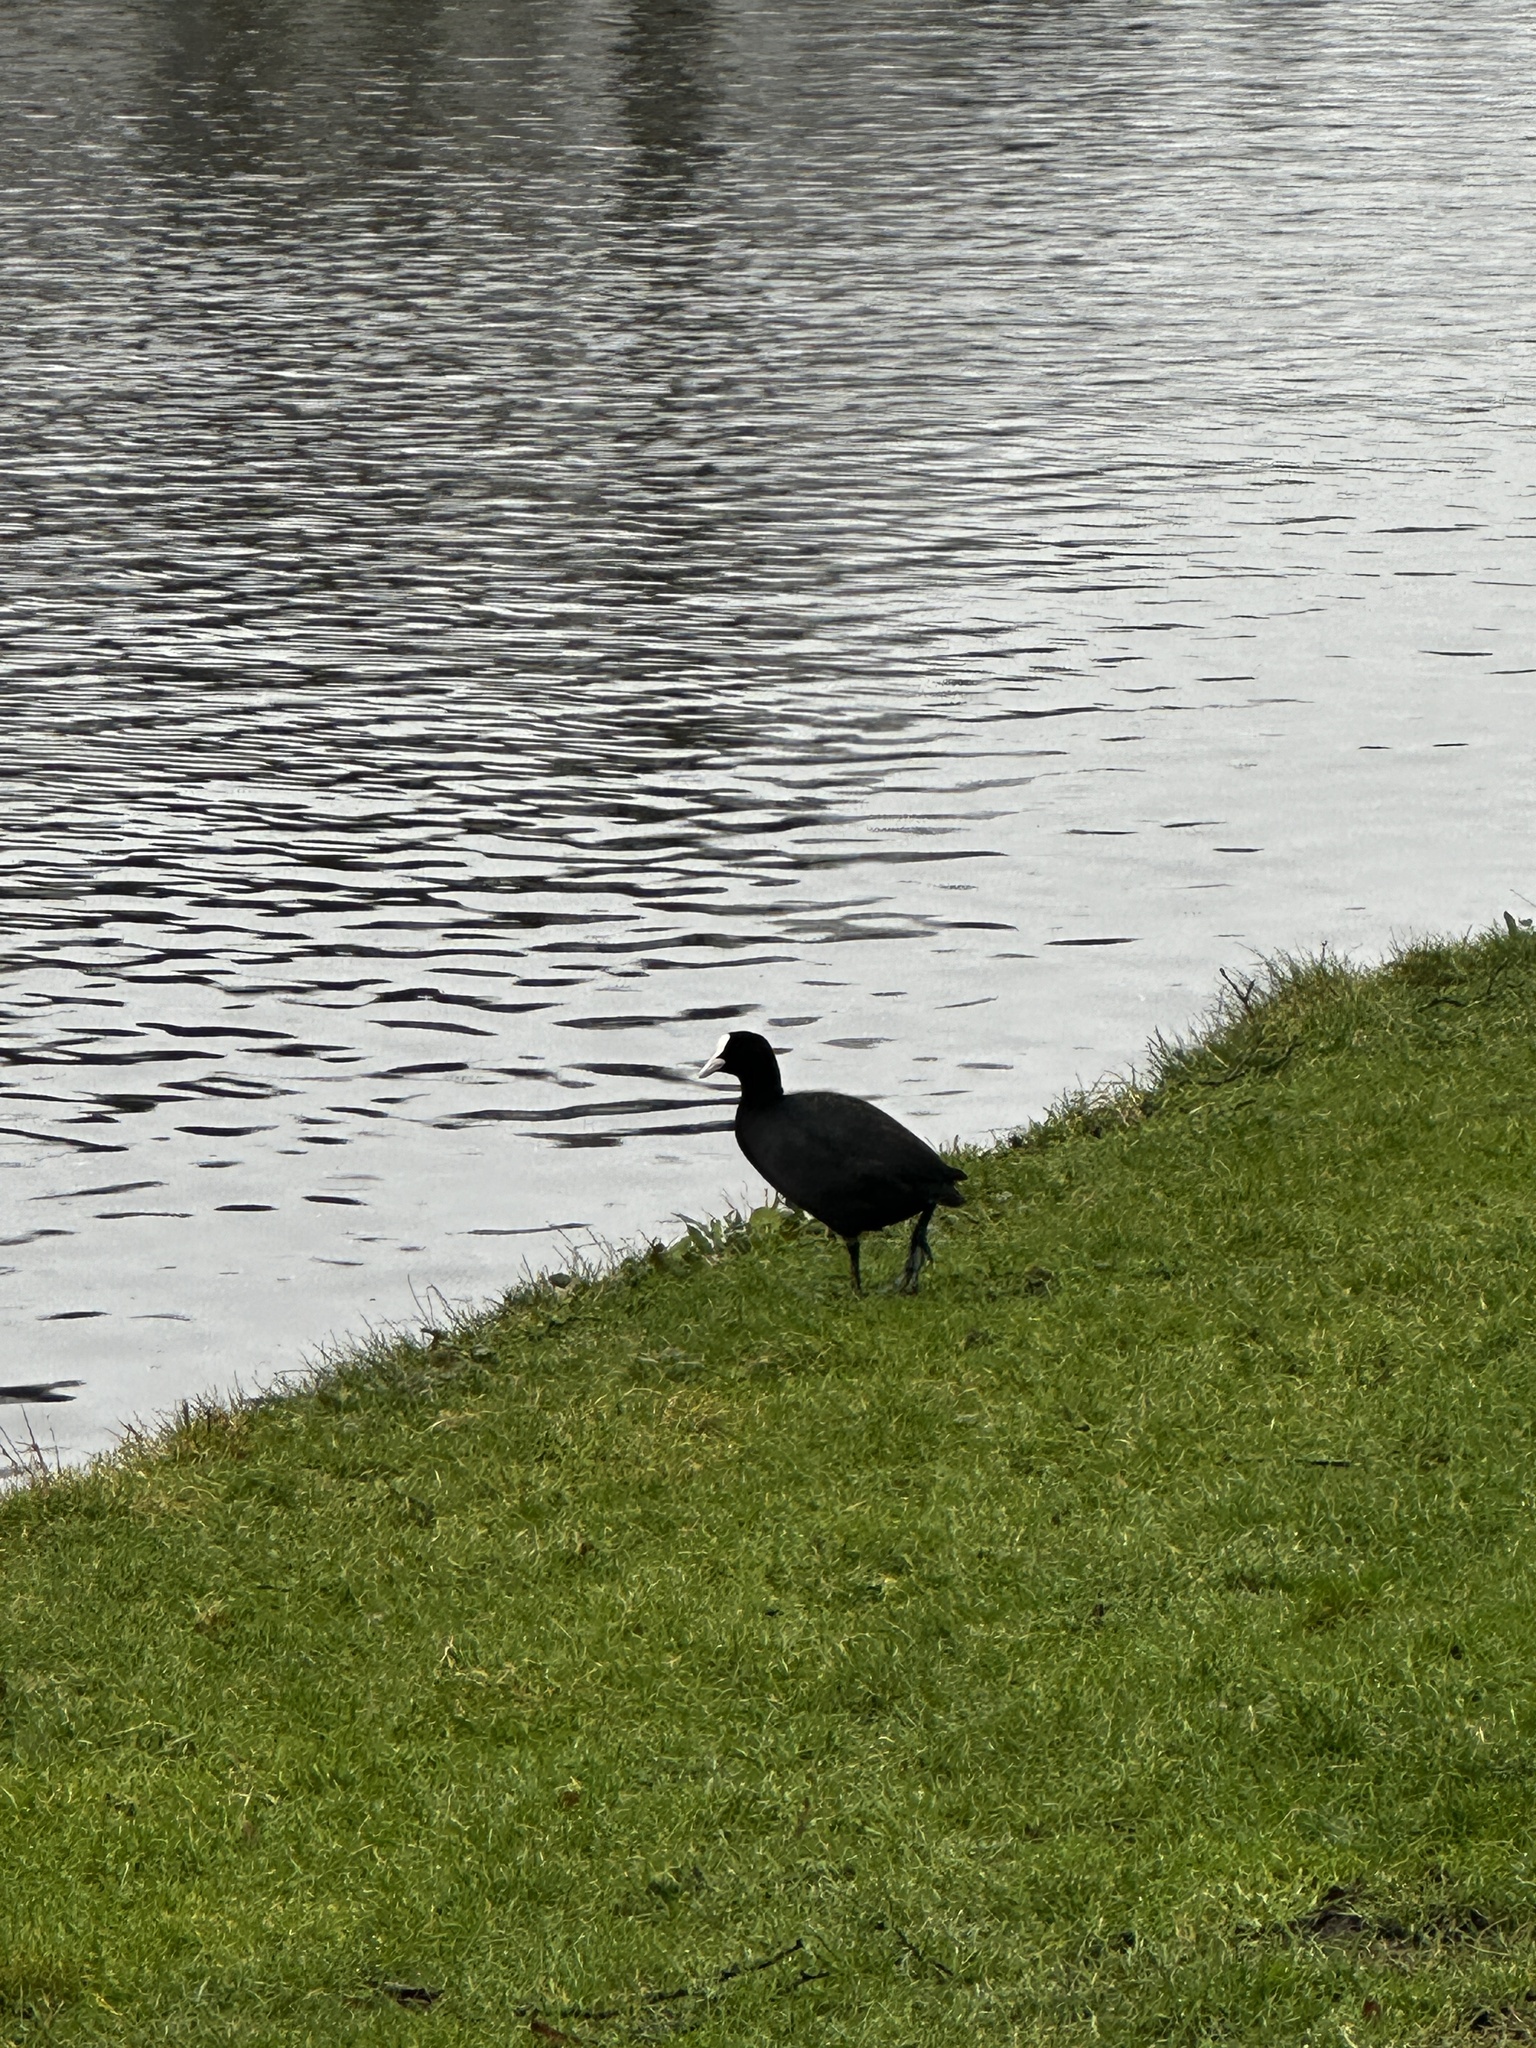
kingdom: Animalia
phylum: Chordata
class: Aves
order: Gruiformes
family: Rallidae
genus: Fulica
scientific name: Fulica atra
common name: Eurasian coot
